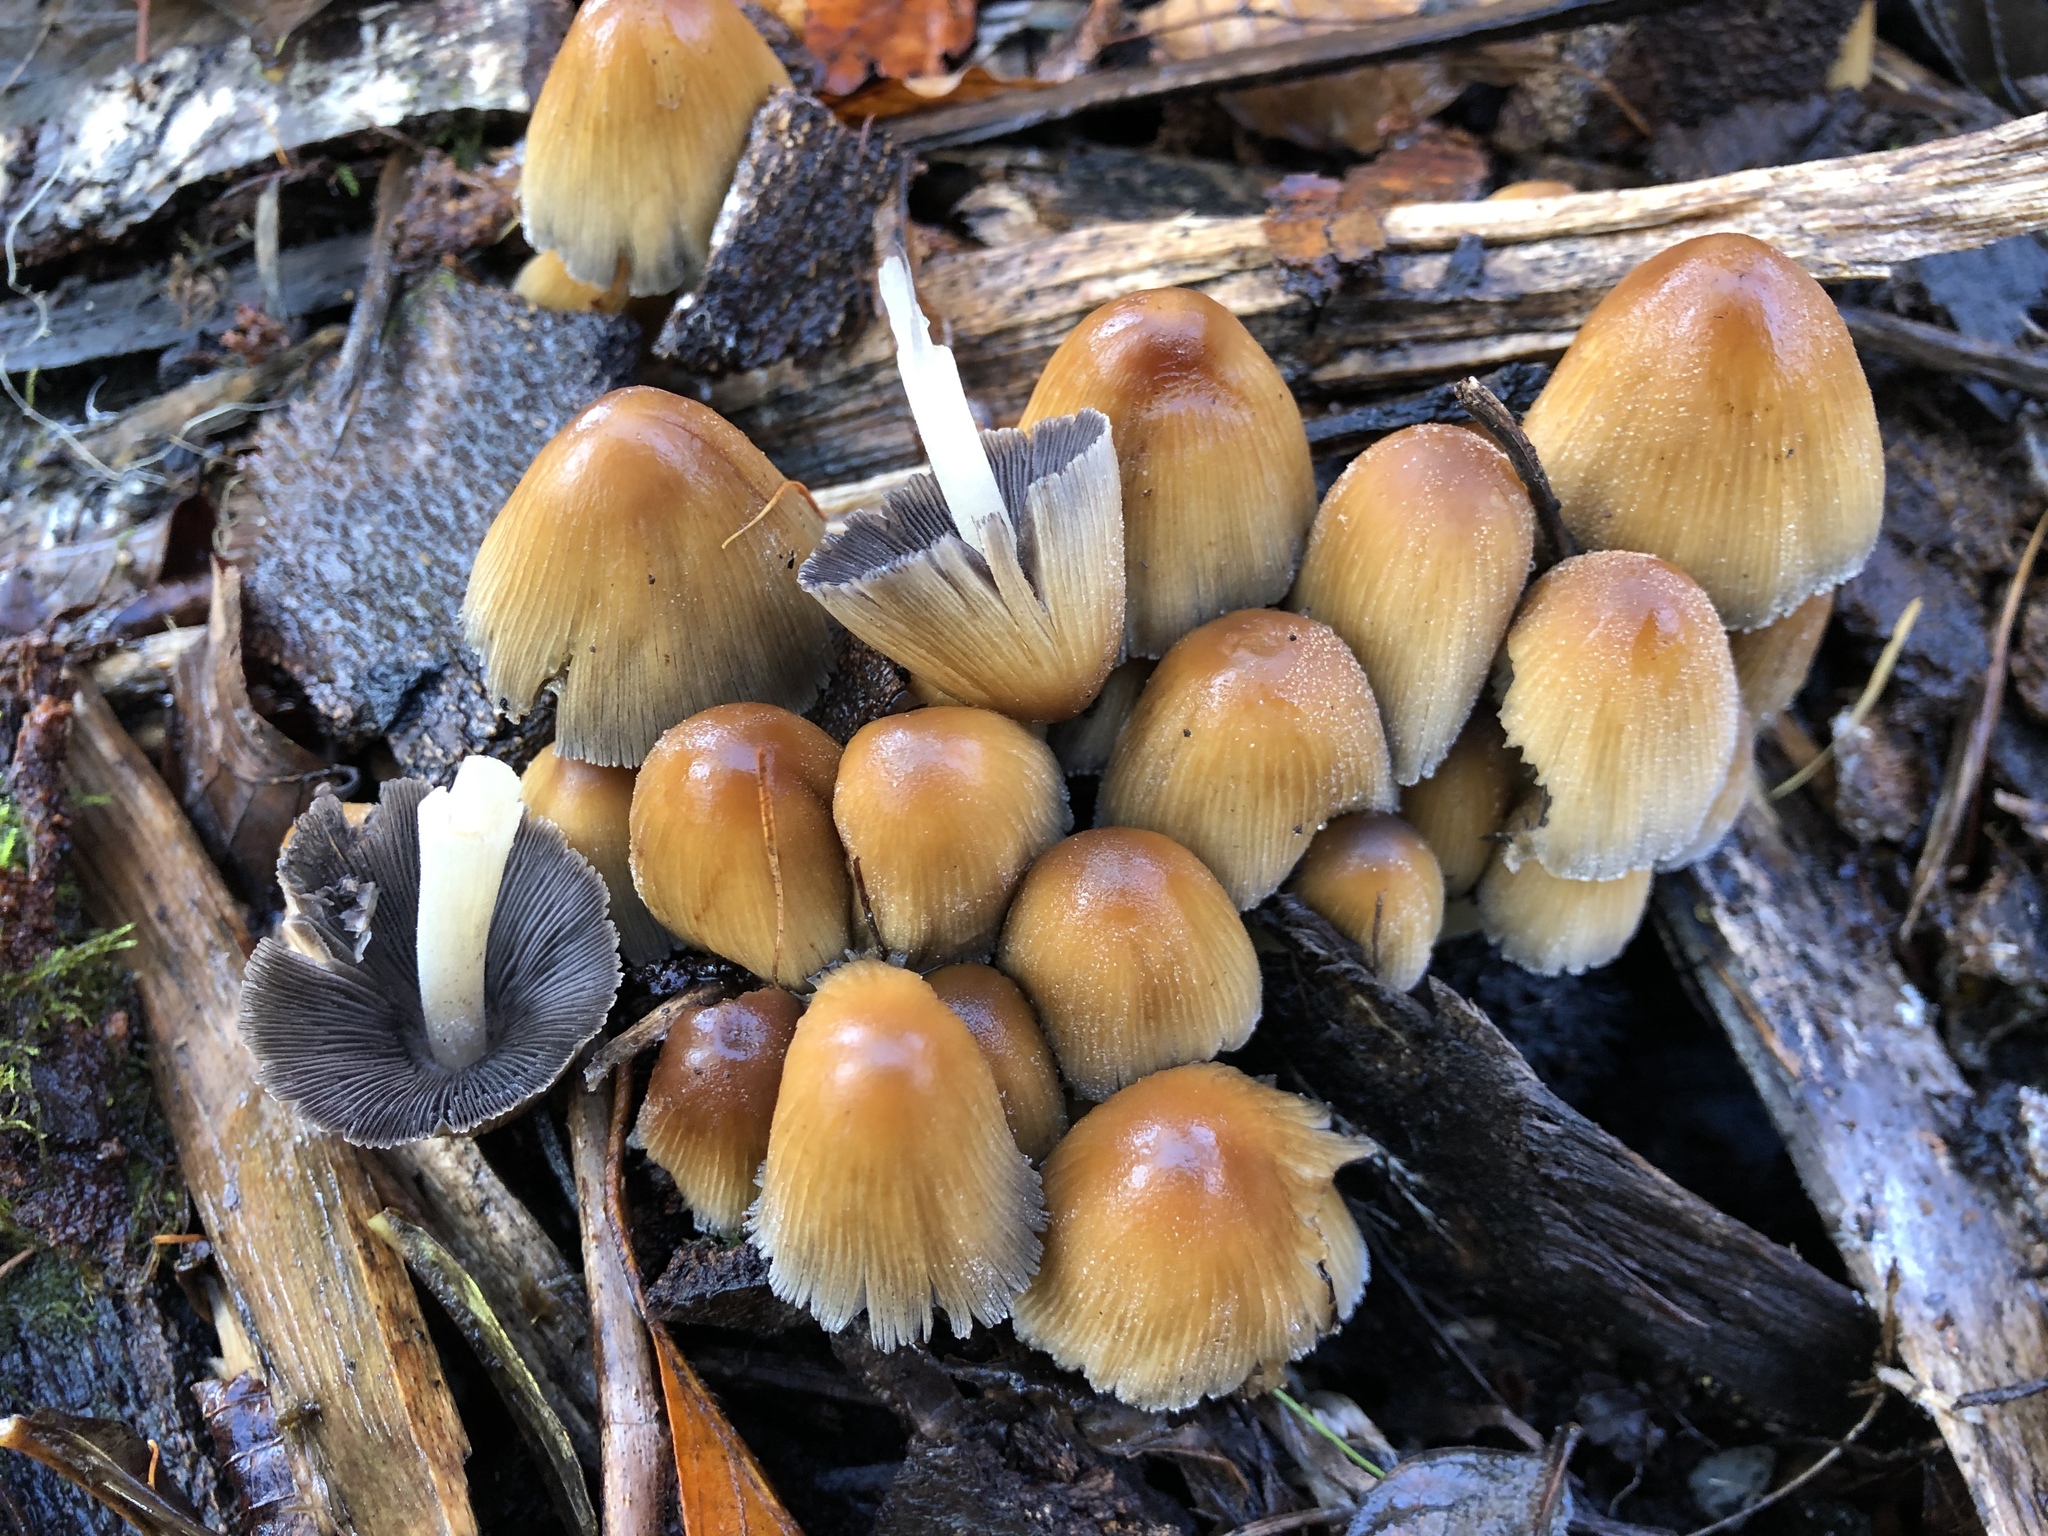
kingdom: Fungi
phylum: Basidiomycota
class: Agaricomycetes
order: Agaricales
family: Psathyrellaceae
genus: Coprinellus
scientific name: Coprinellus micaceus
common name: Glistening ink-cap
